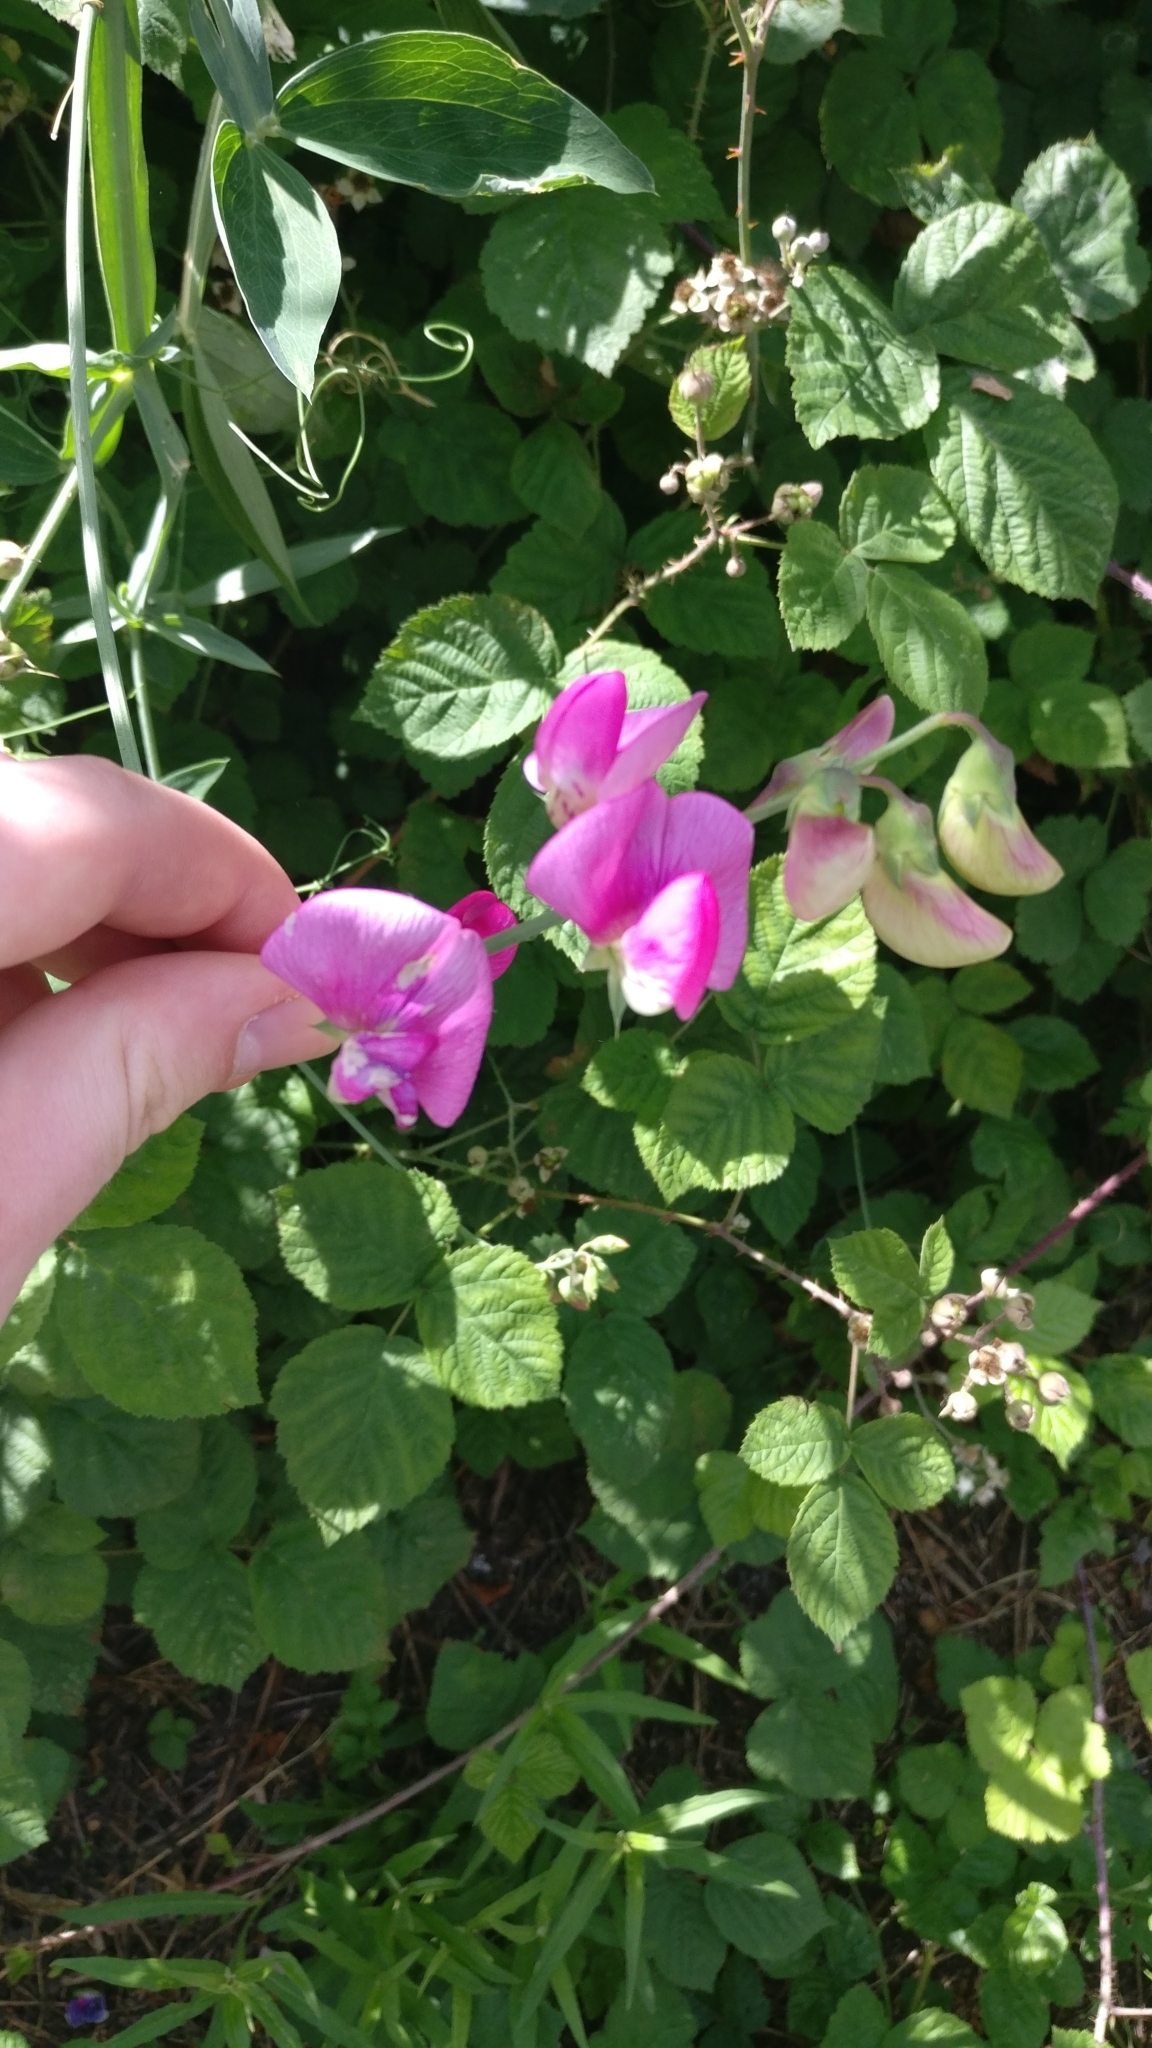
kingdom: Plantae
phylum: Tracheophyta
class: Magnoliopsida
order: Fabales
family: Fabaceae
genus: Lathyrus
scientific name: Lathyrus latifolius
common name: Perennial pea
